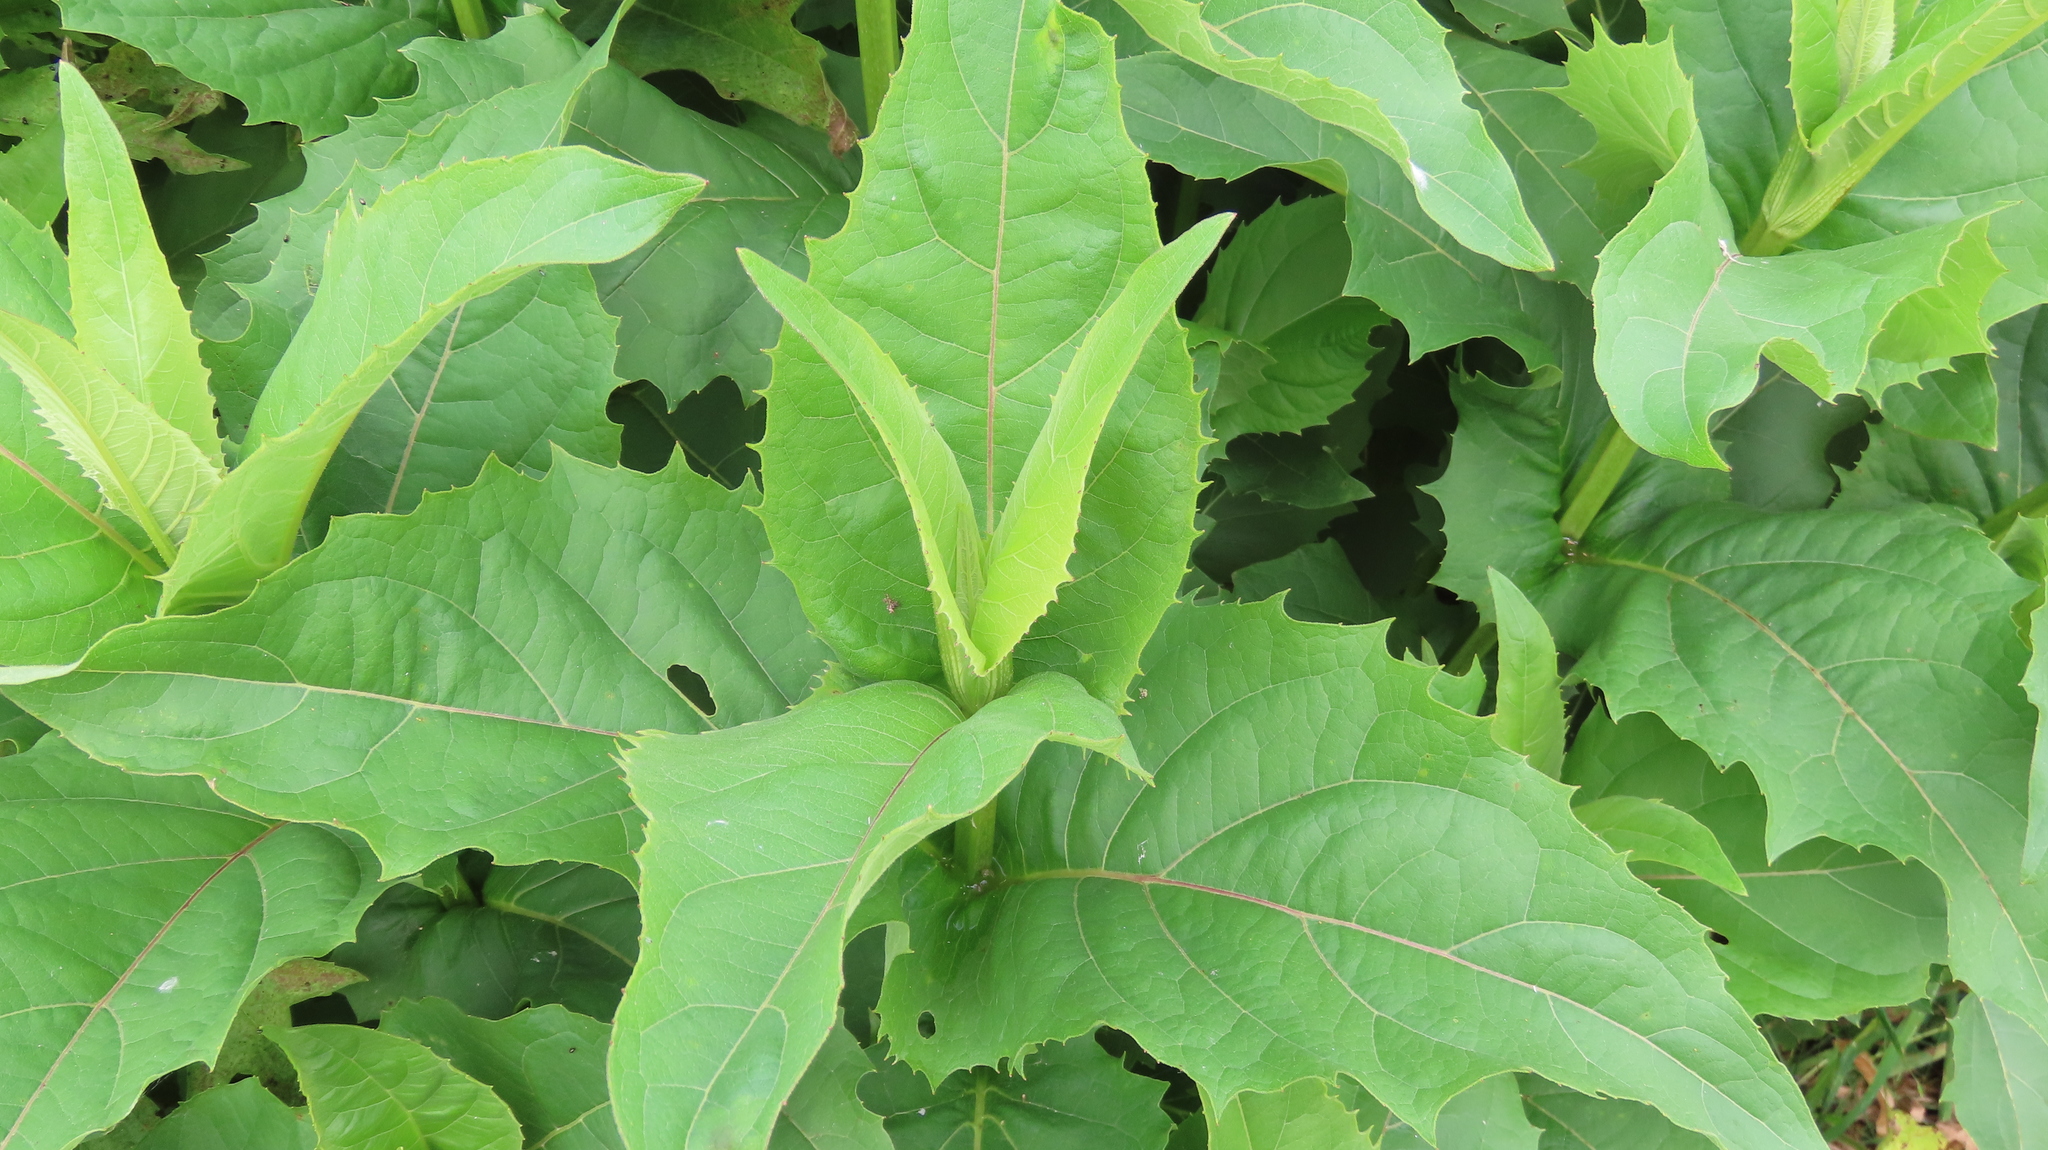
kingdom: Plantae
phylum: Tracheophyta
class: Magnoliopsida
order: Asterales
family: Asteraceae
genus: Silphium
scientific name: Silphium perfoliatum
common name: Cup-plant
